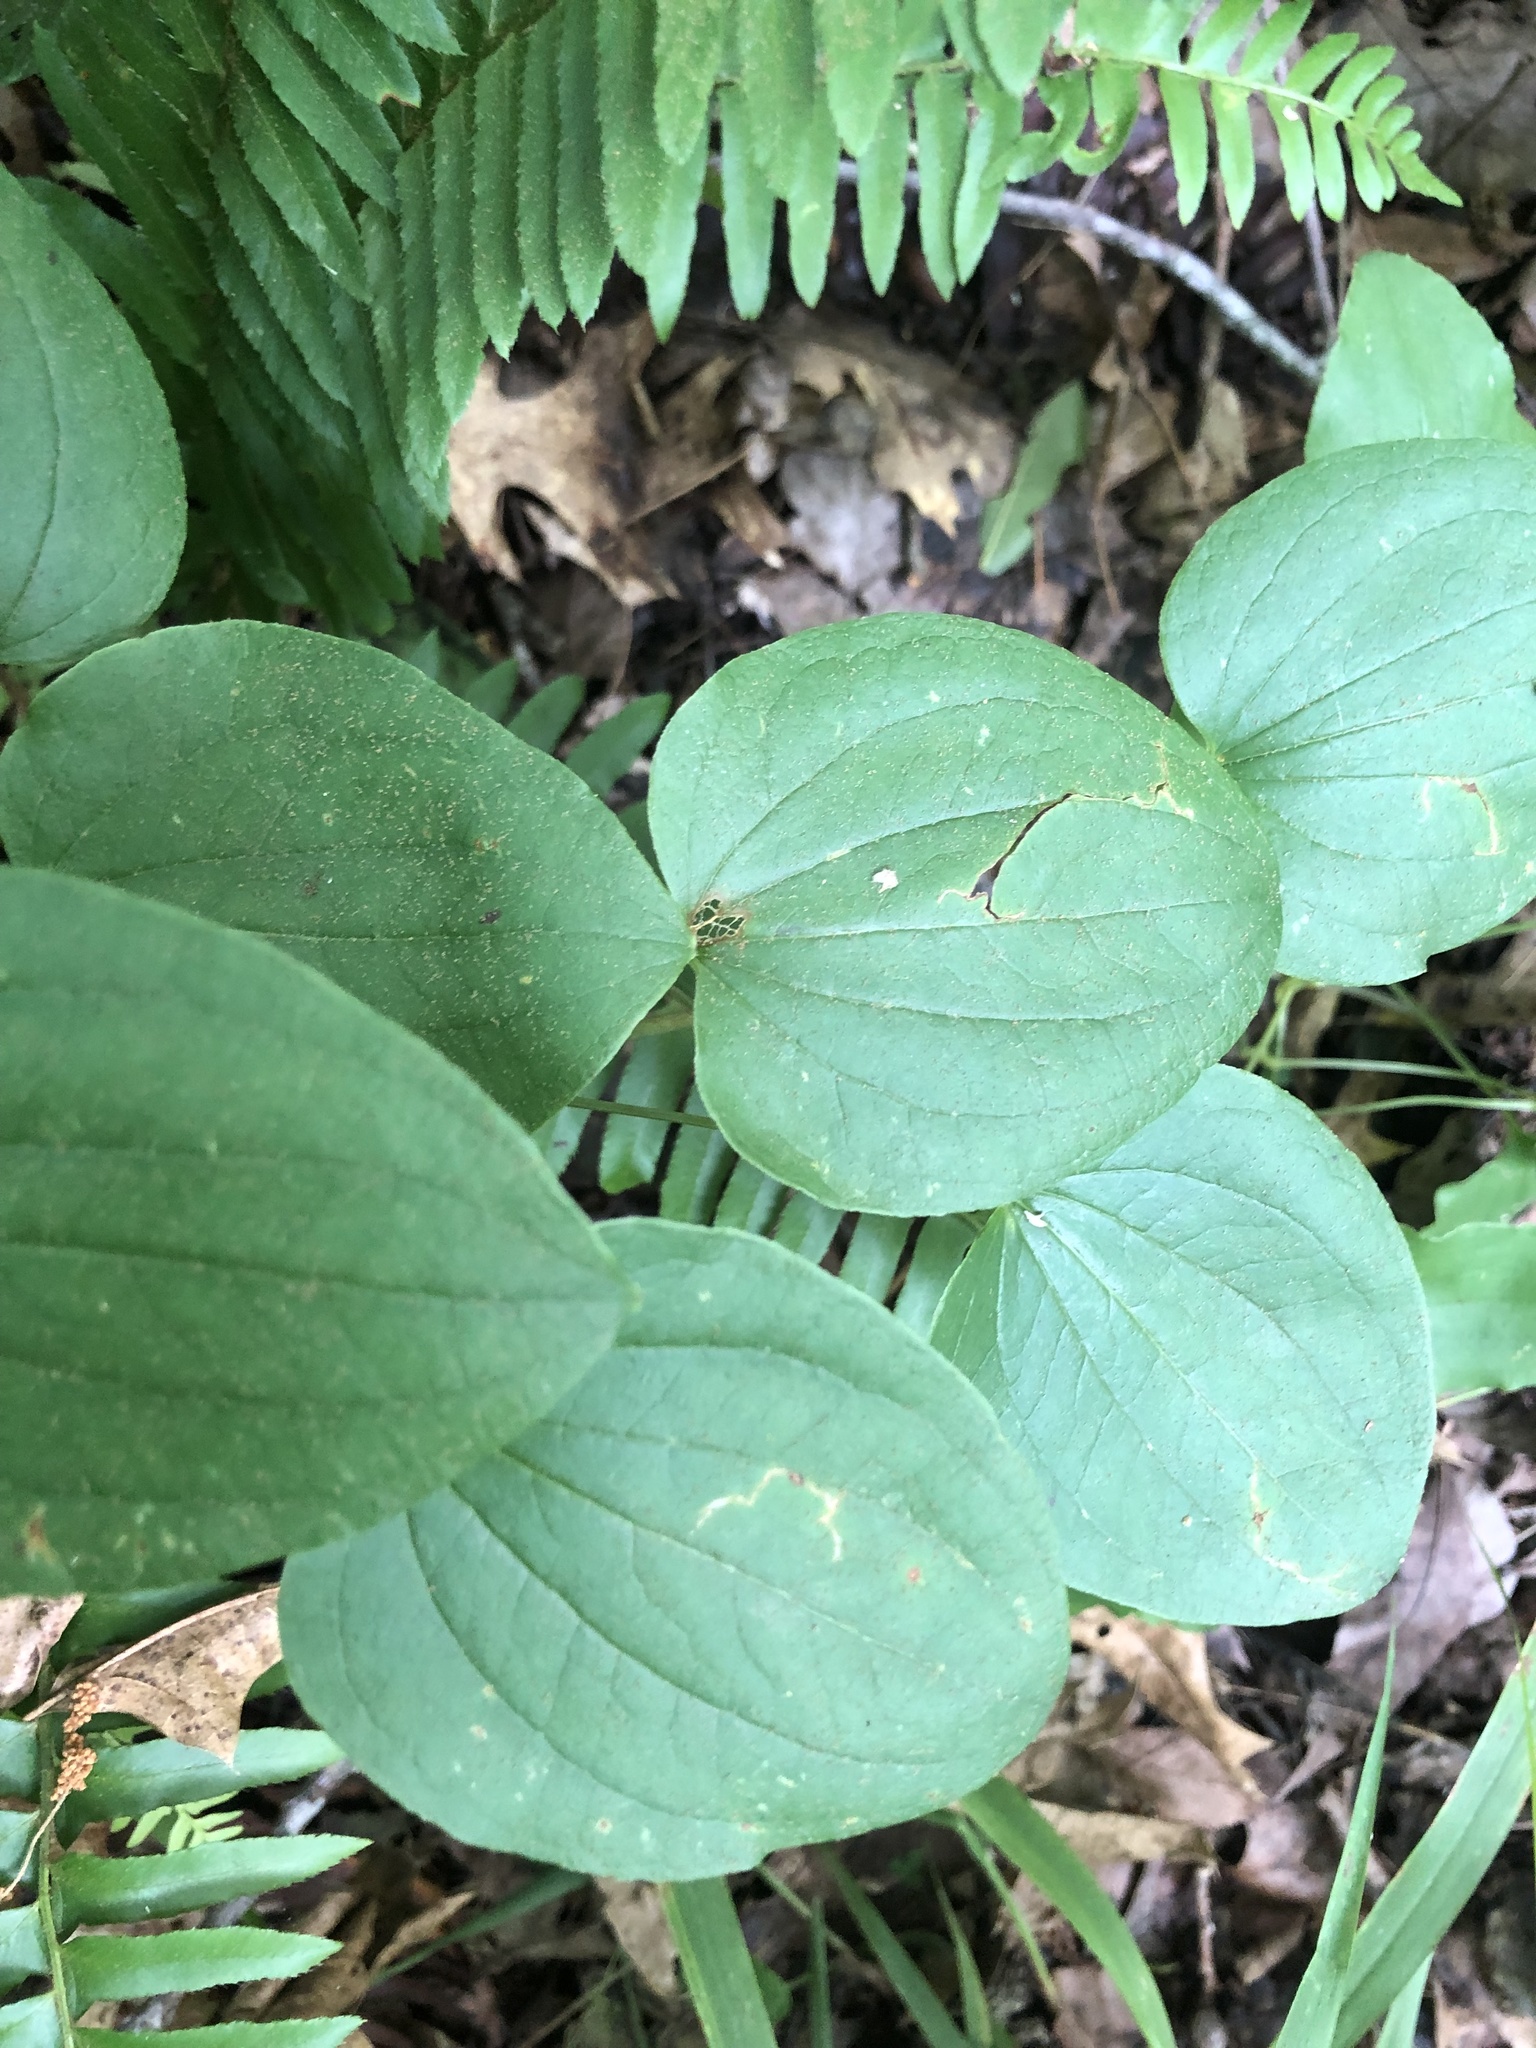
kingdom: Plantae
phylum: Tracheophyta
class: Liliopsida
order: Liliales
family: Smilacaceae
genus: Smilax
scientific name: Smilax lasioneura
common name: Blue ridge carrionflower
